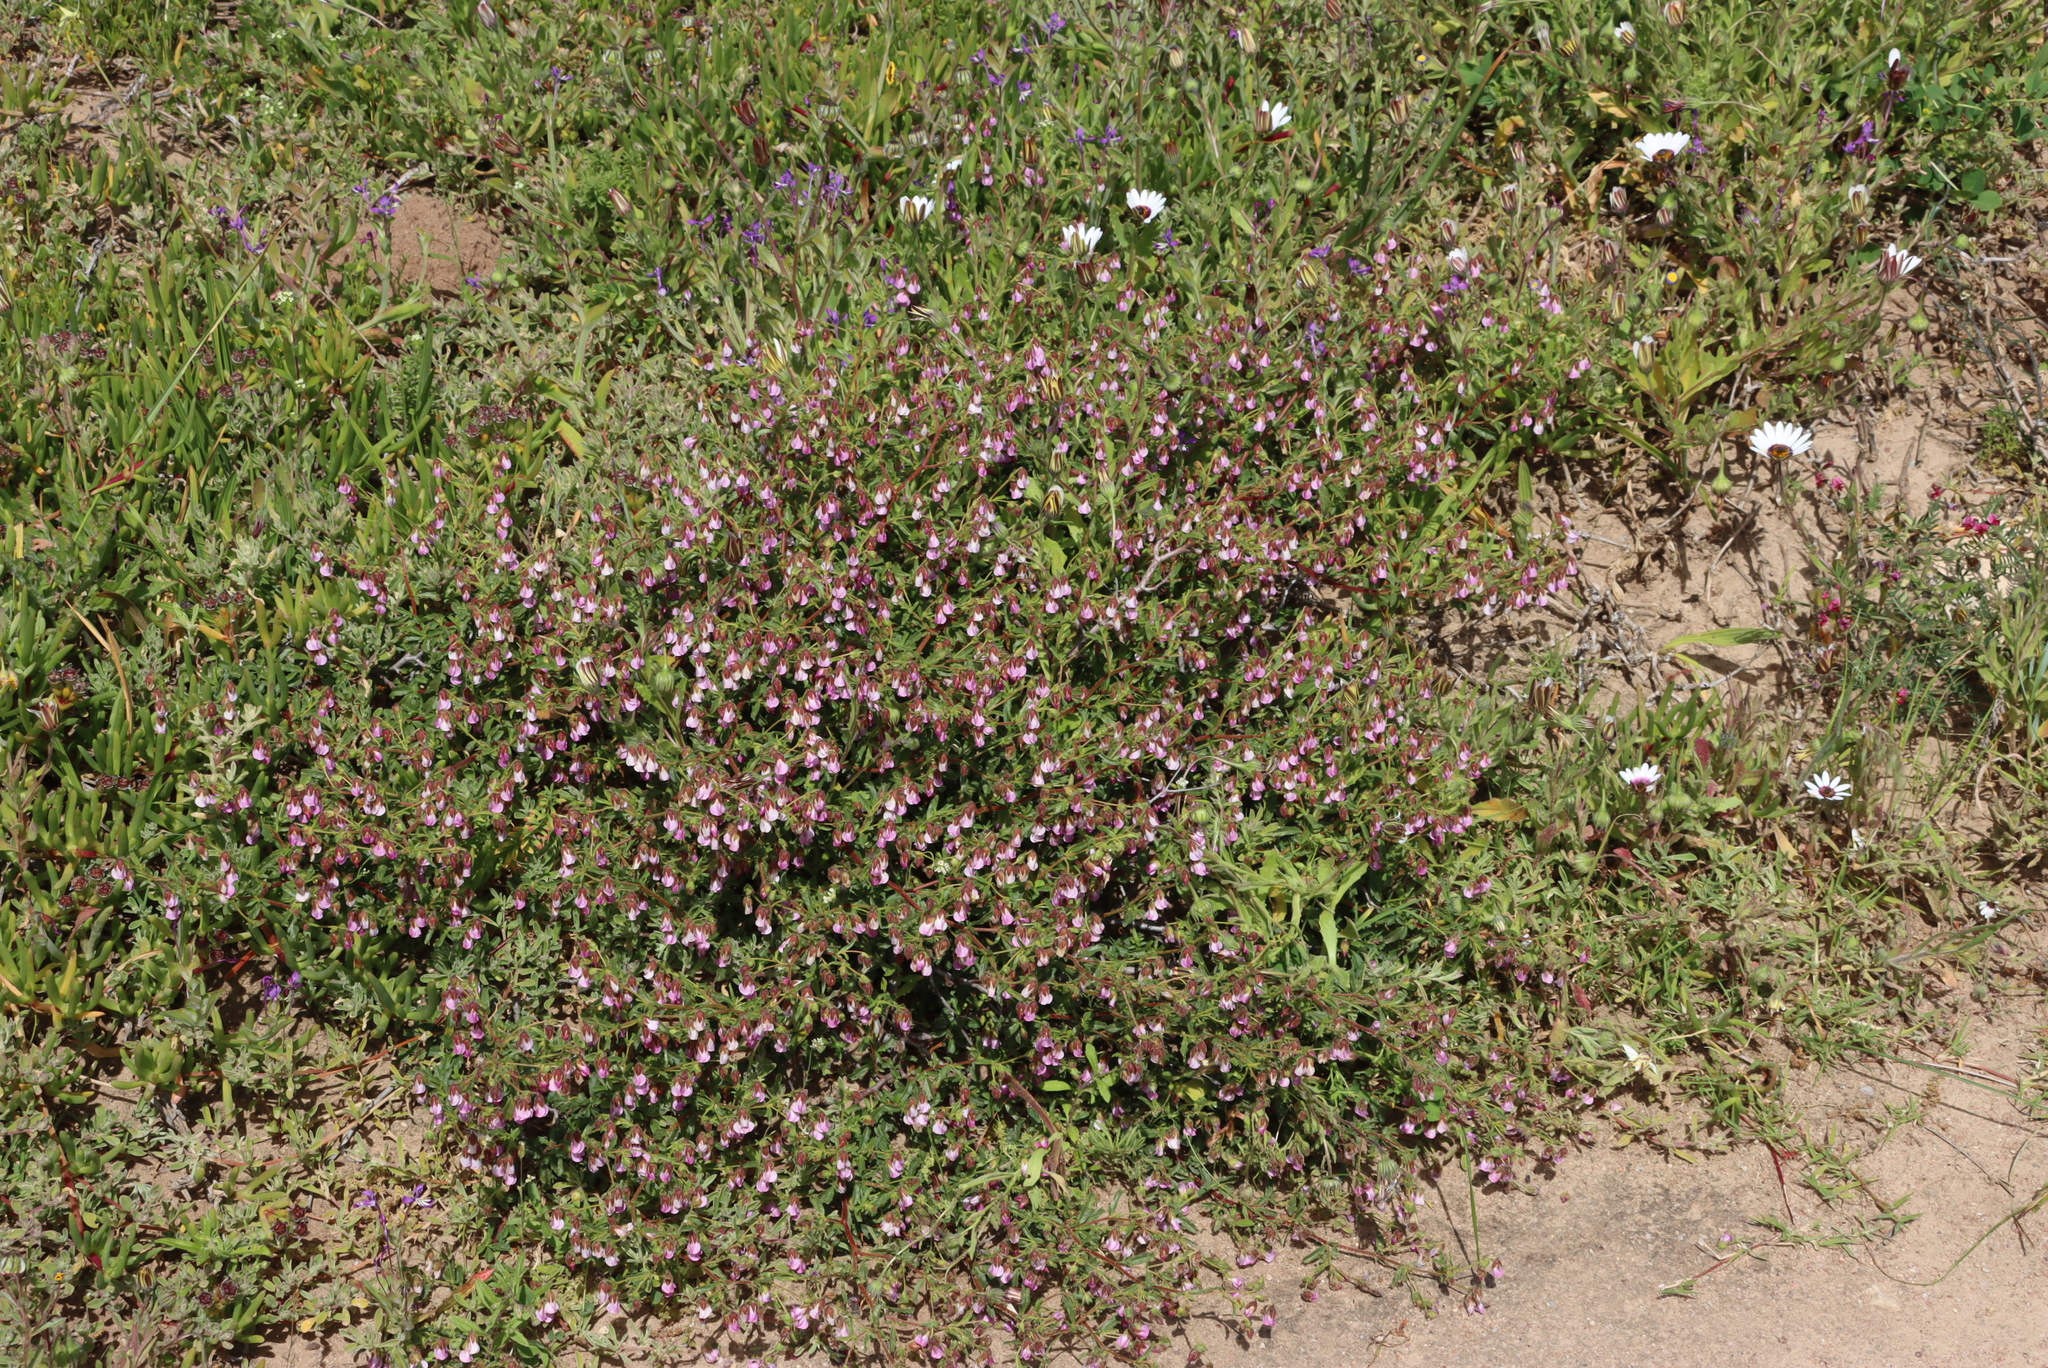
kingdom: Plantae
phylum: Tracheophyta
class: Magnoliopsida
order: Malvales
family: Malvaceae
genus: Hermannia
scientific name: Hermannia heterophylla
